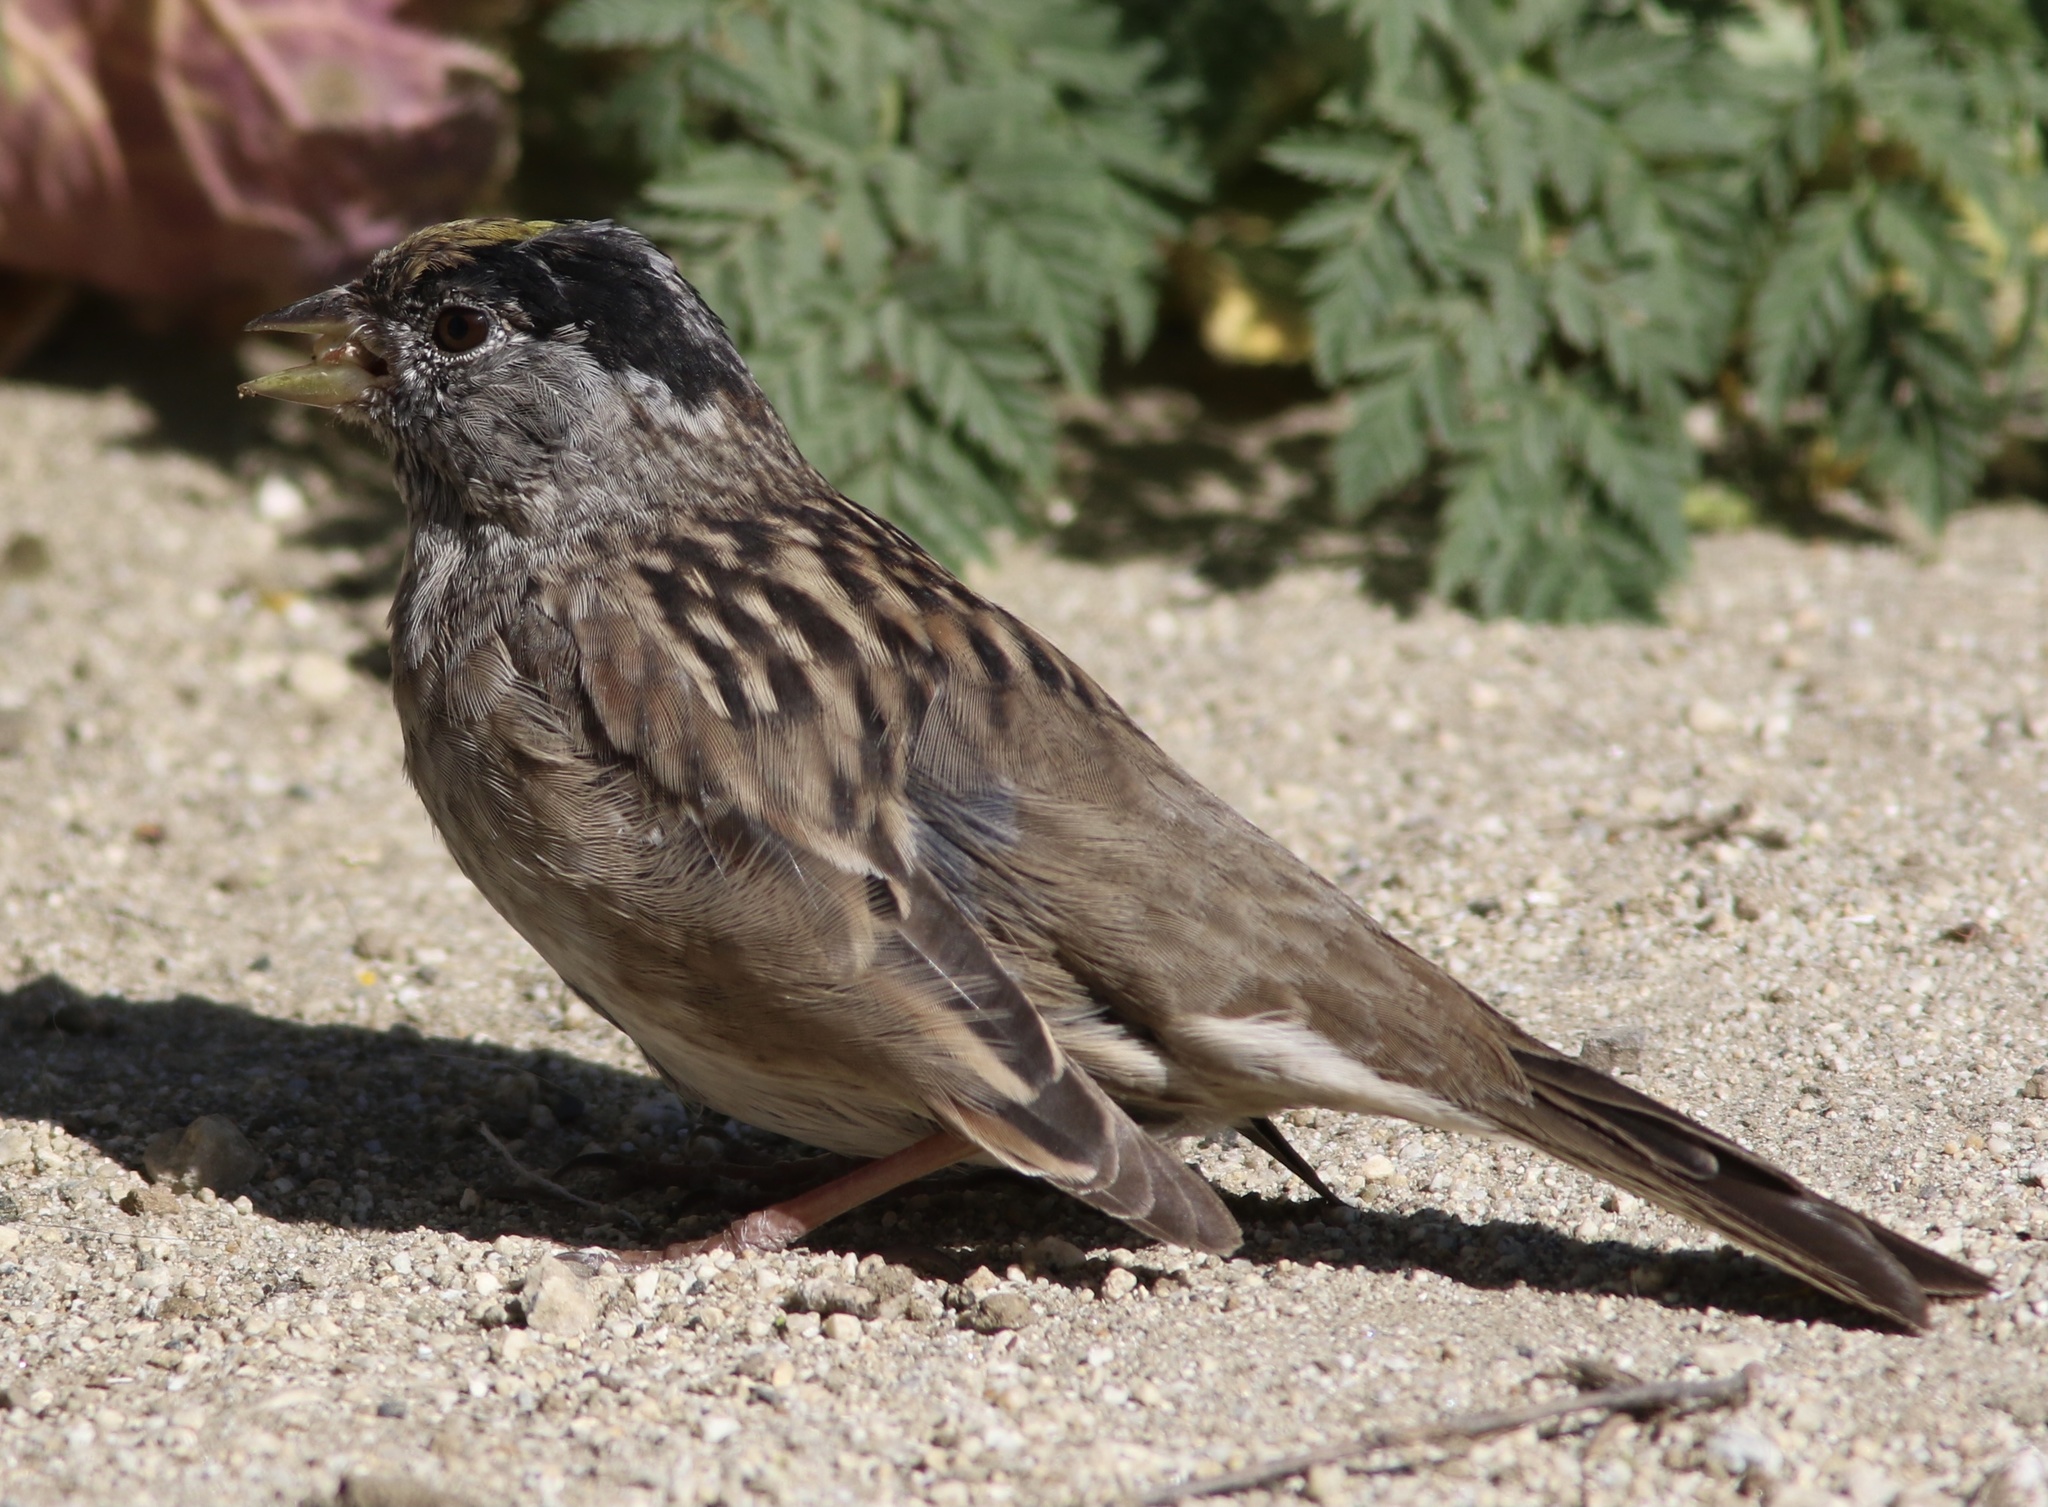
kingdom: Animalia
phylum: Chordata
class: Aves
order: Passeriformes
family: Passerellidae
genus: Zonotrichia
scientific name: Zonotrichia atricapilla
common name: Golden-crowned sparrow
